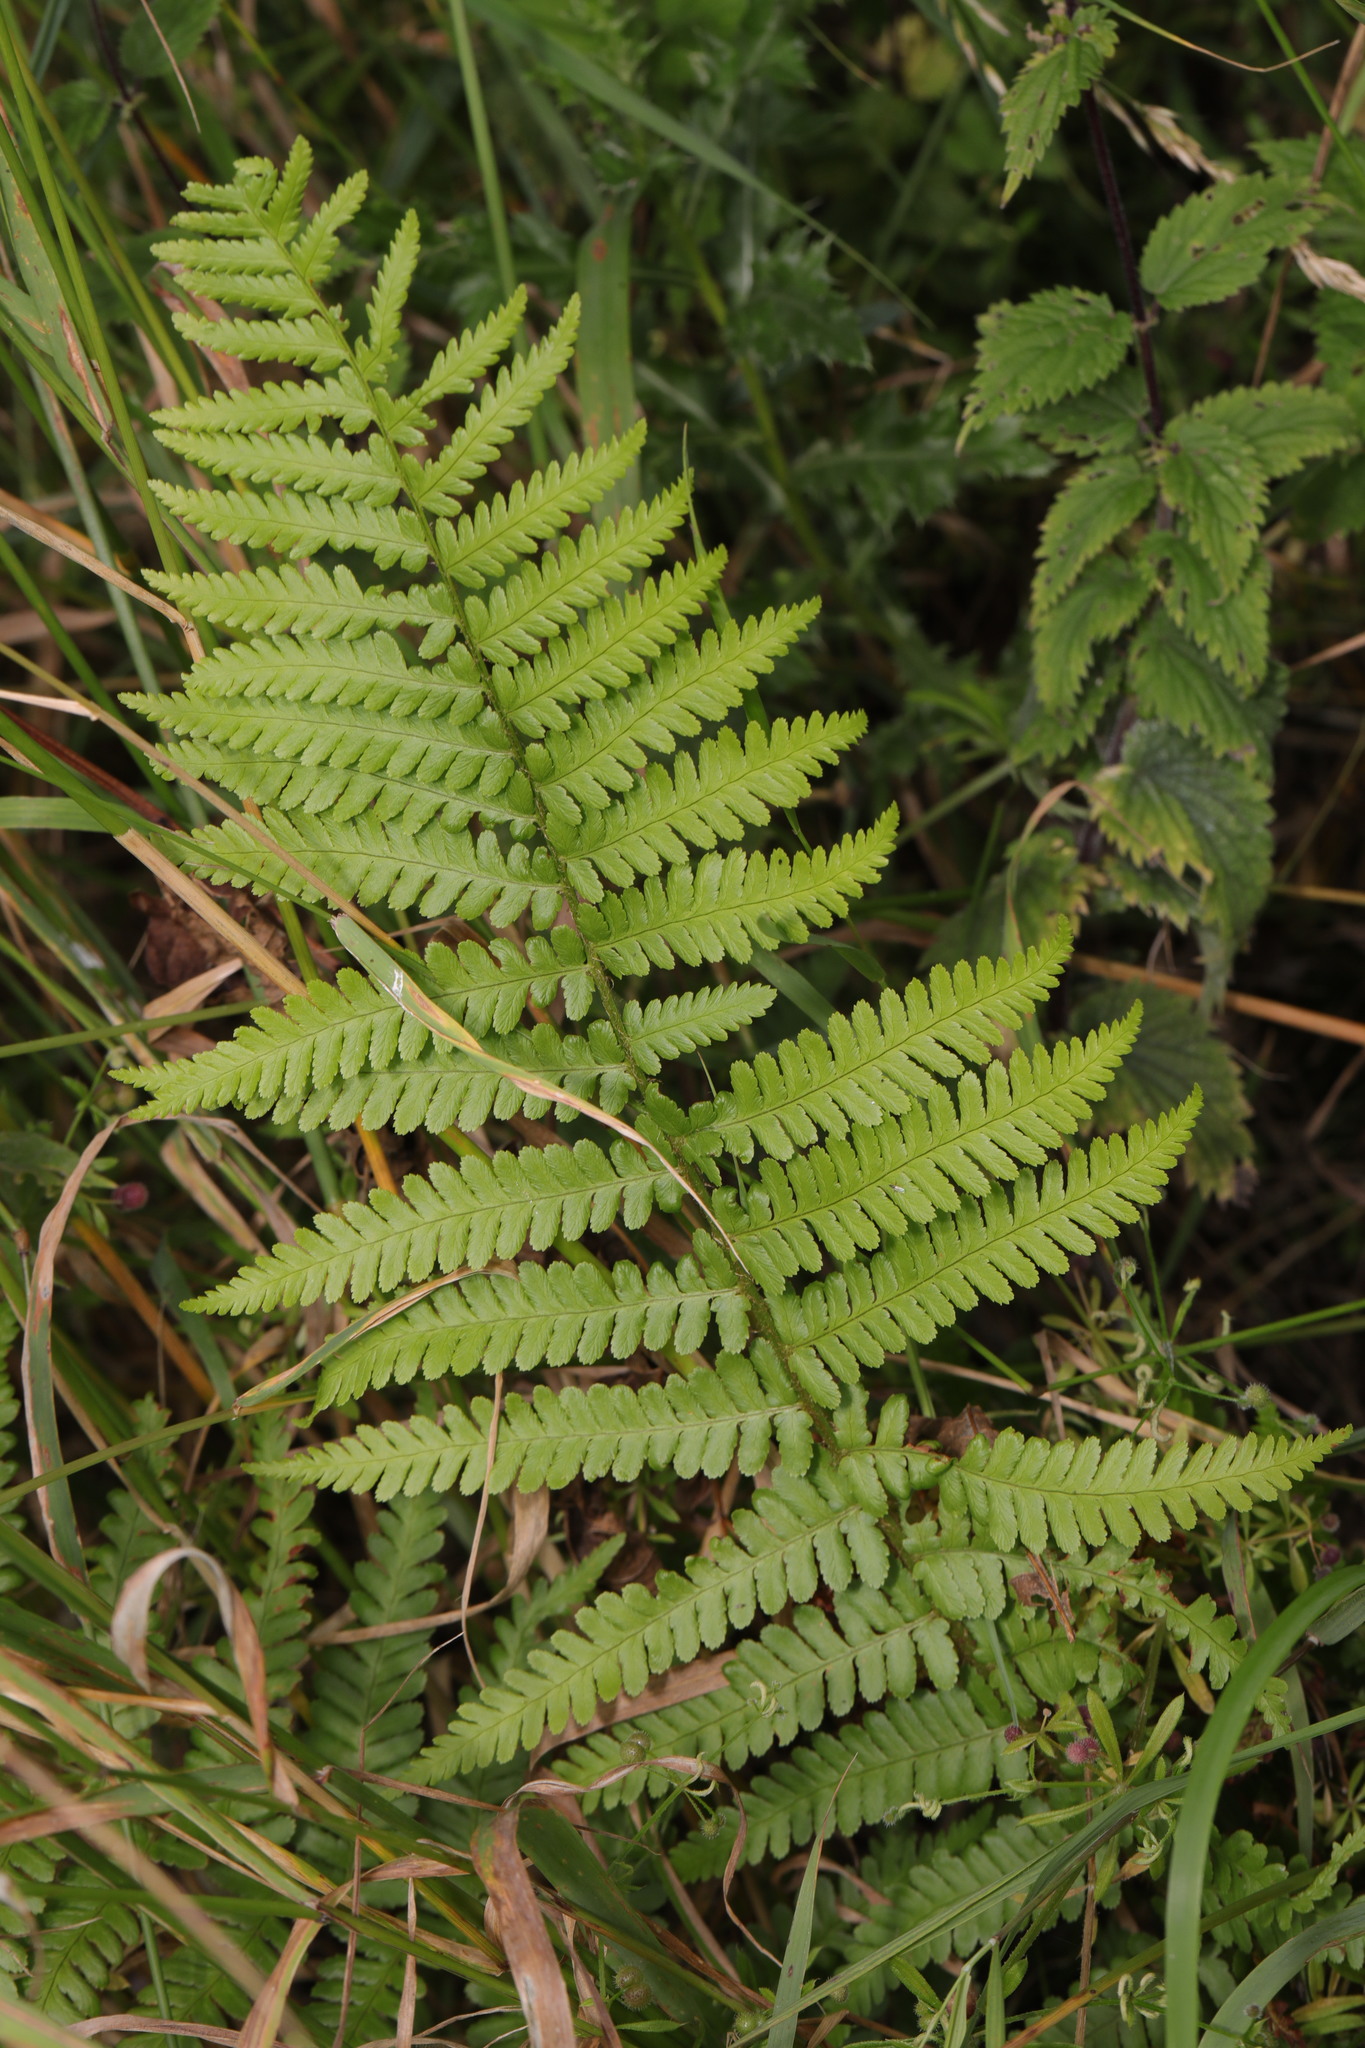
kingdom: Plantae
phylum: Tracheophyta
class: Polypodiopsida
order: Polypodiales
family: Dryopteridaceae
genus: Dryopteris
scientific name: Dryopteris filix-mas
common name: Male fern
